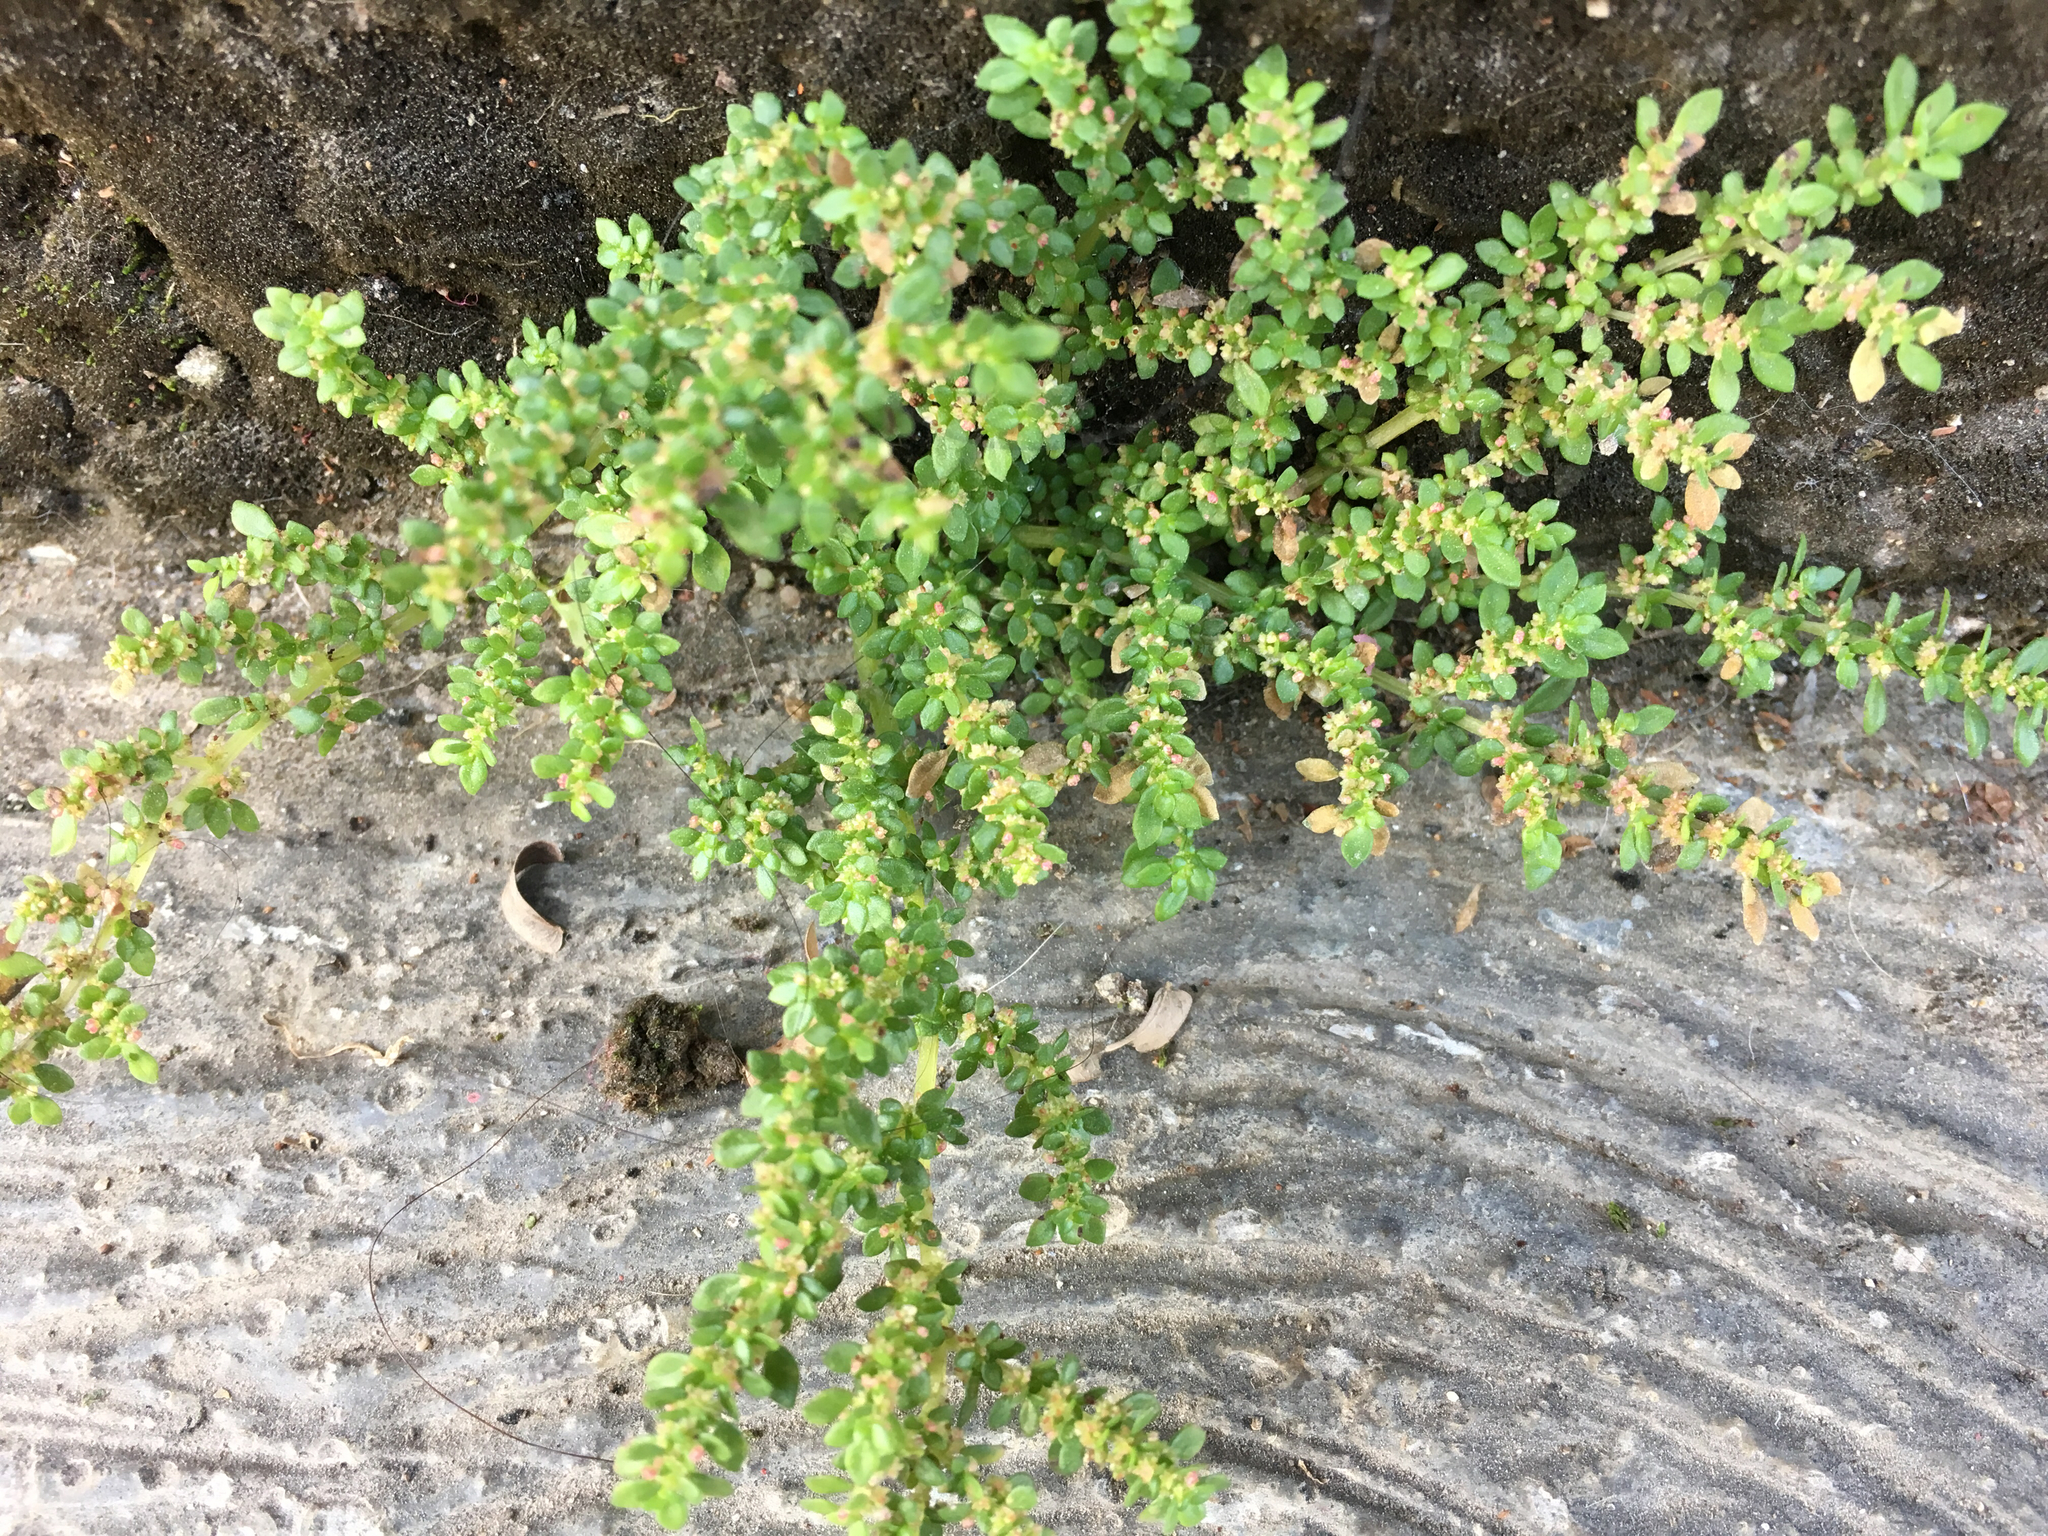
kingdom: Plantae
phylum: Tracheophyta
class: Magnoliopsida
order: Rosales
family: Urticaceae
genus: Pilea
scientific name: Pilea microphylla
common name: Artillery-plant
